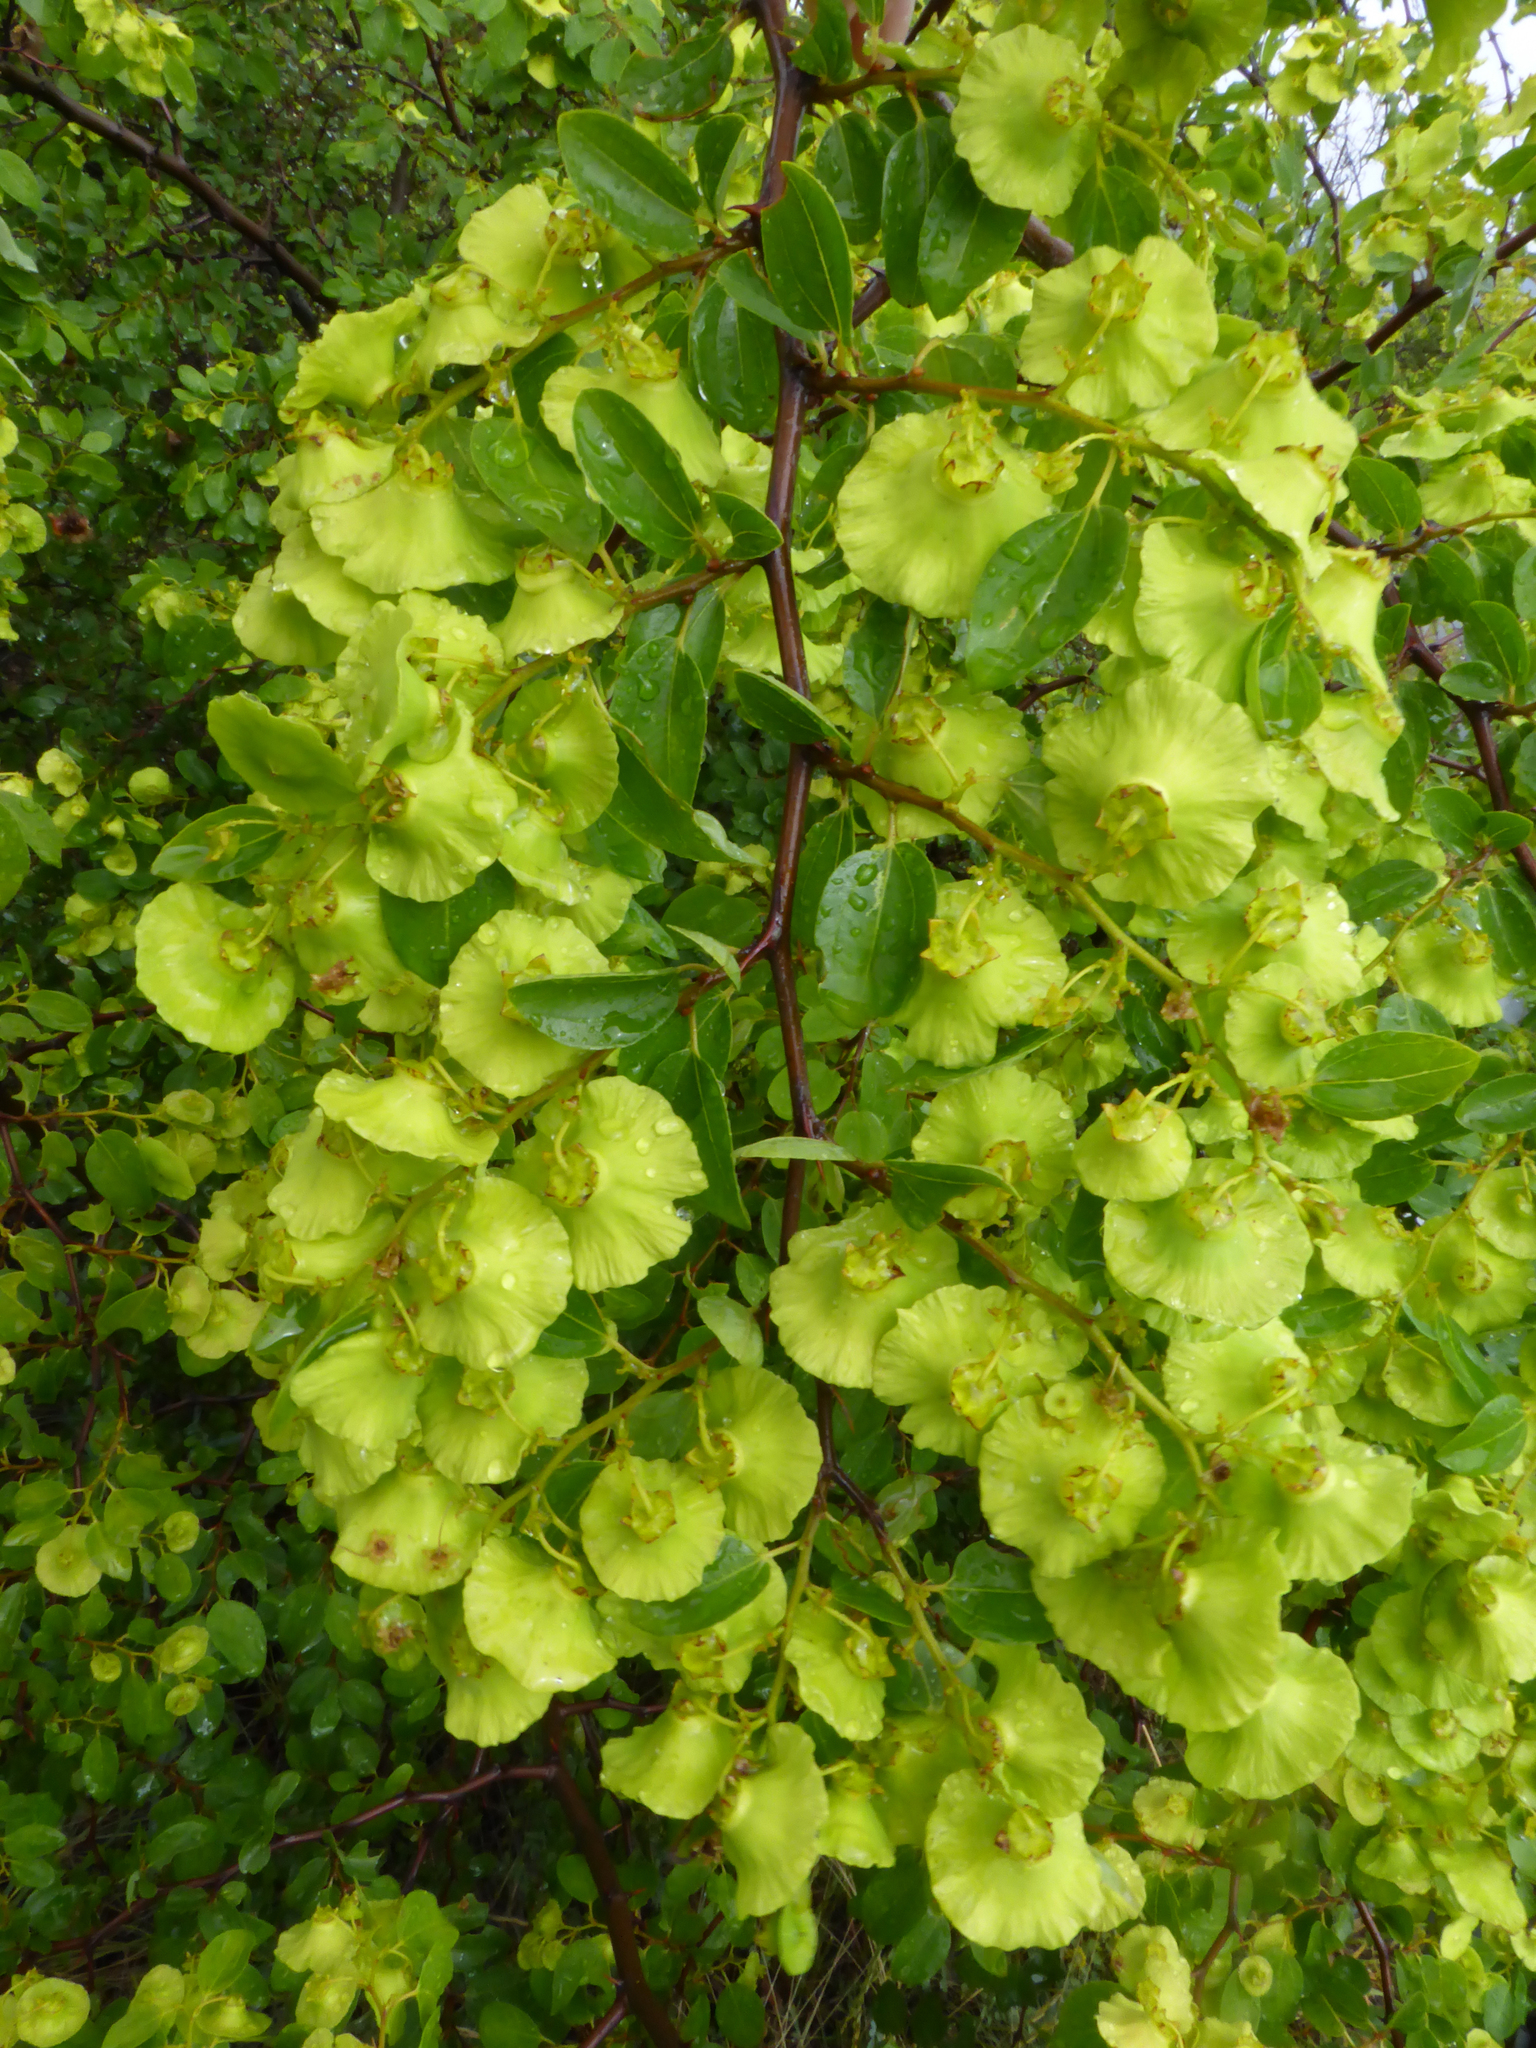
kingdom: Plantae
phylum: Tracheophyta
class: Magnoliopsida
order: Rosales
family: Rhamnaceae
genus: Paliurus
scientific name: Paliurus spina-christi
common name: Jeruselem thorn
